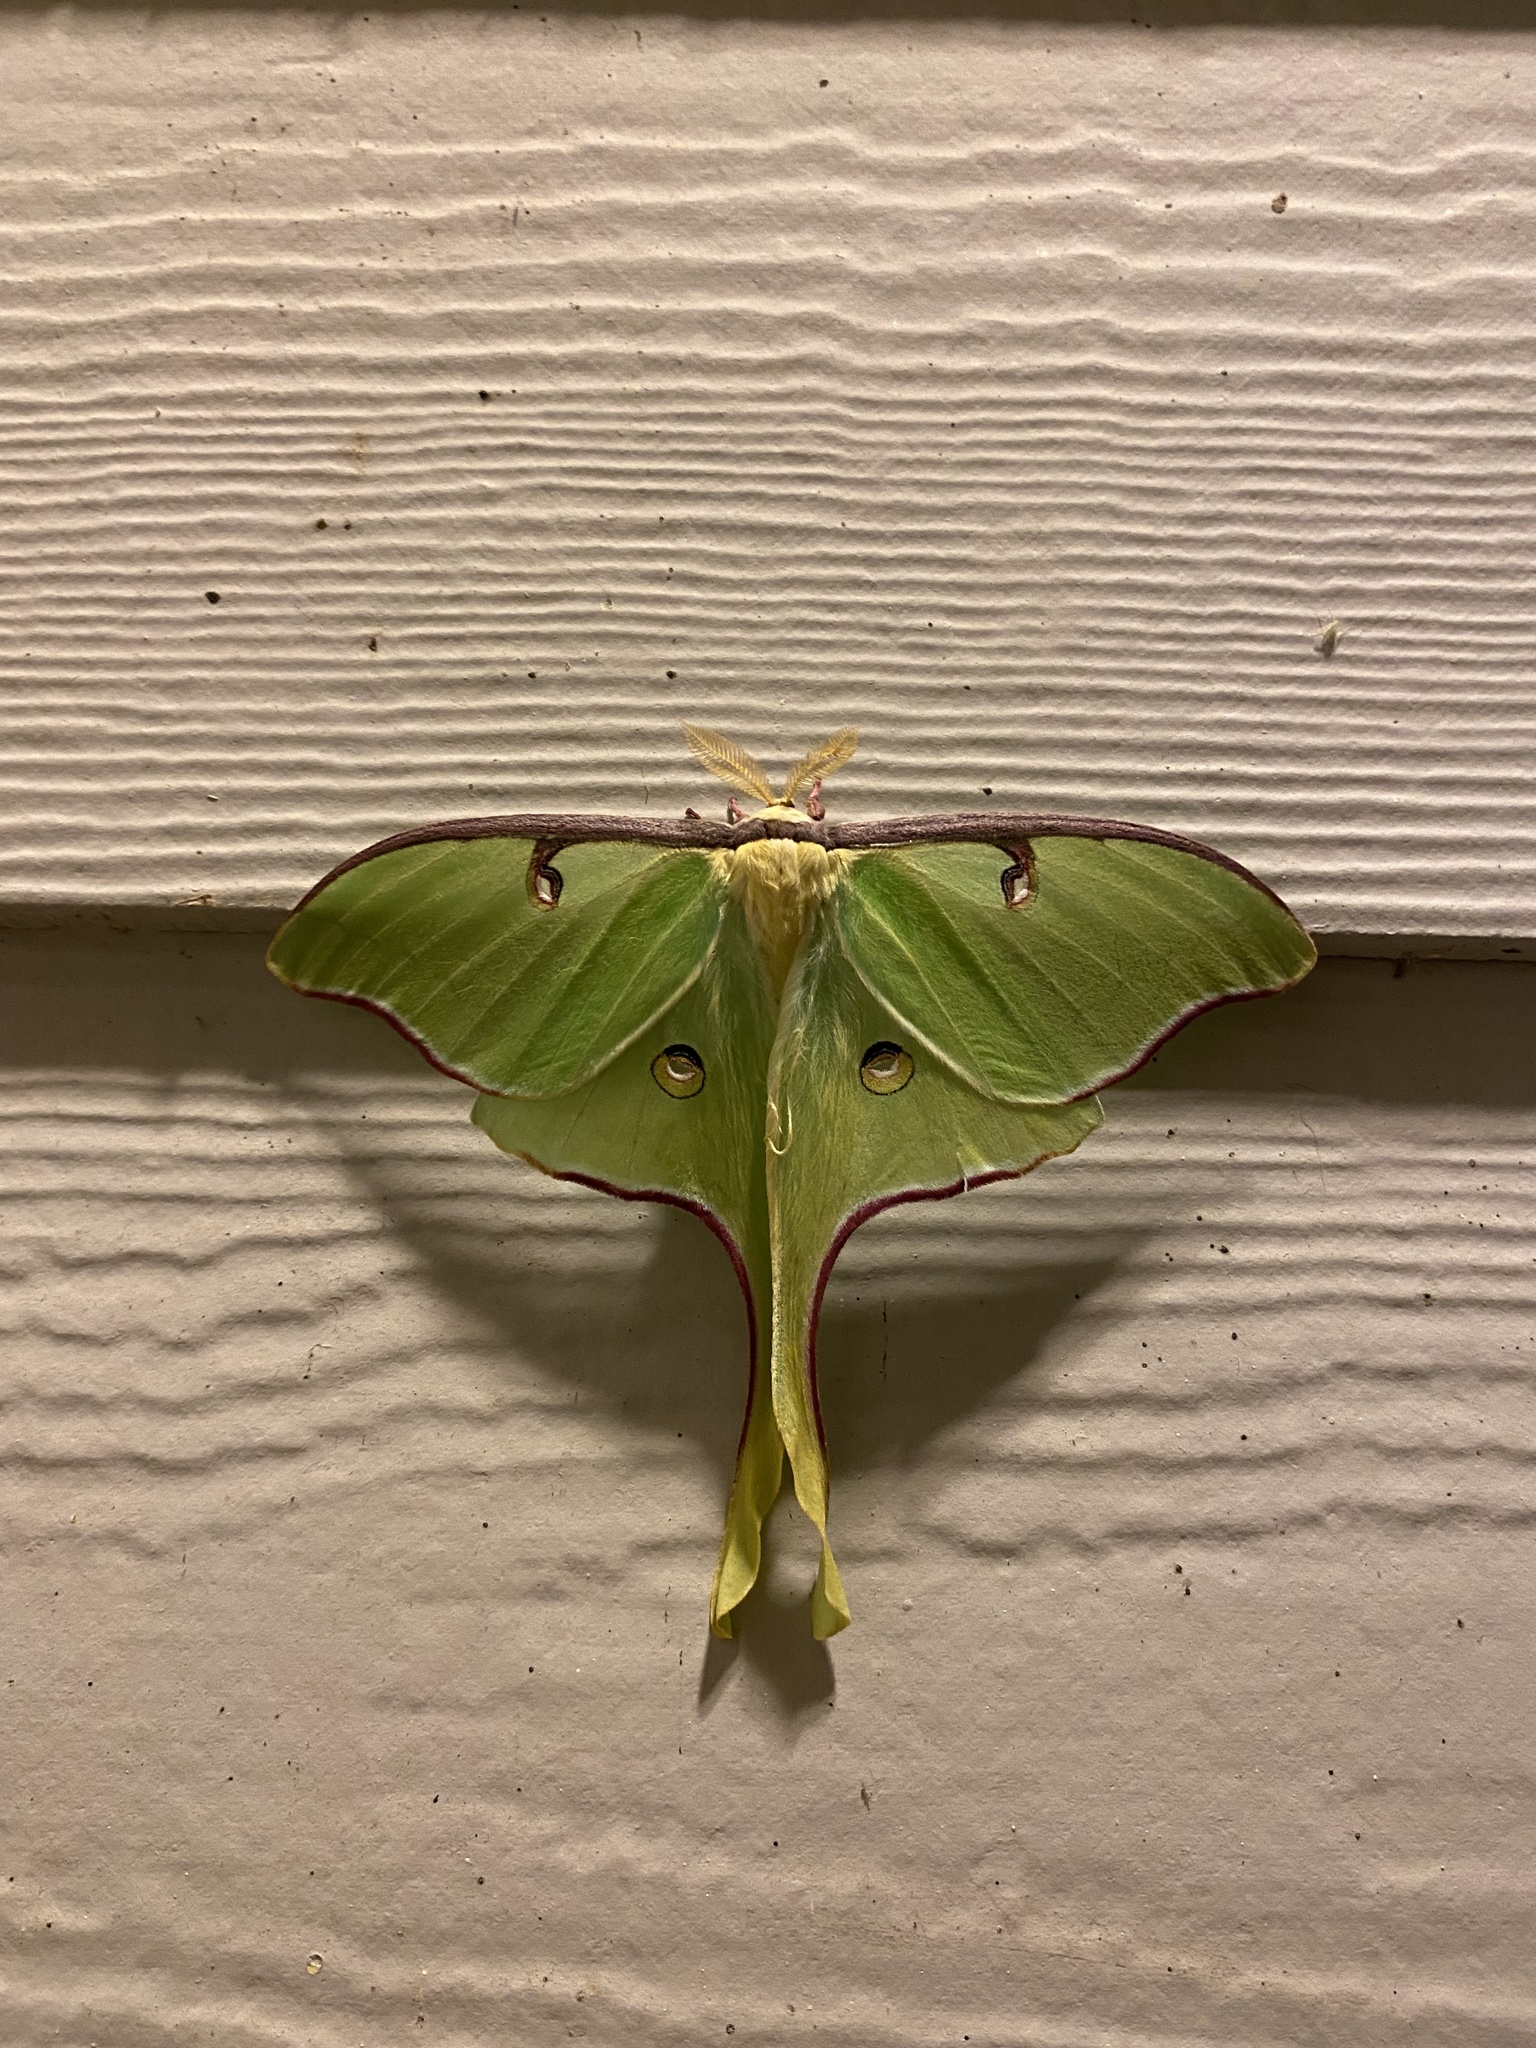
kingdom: Animalia
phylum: Arthropoda
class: Insecta
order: Lepidoptera
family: Saturniidae
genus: Actias
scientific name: Actias luna
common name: Luna moth
